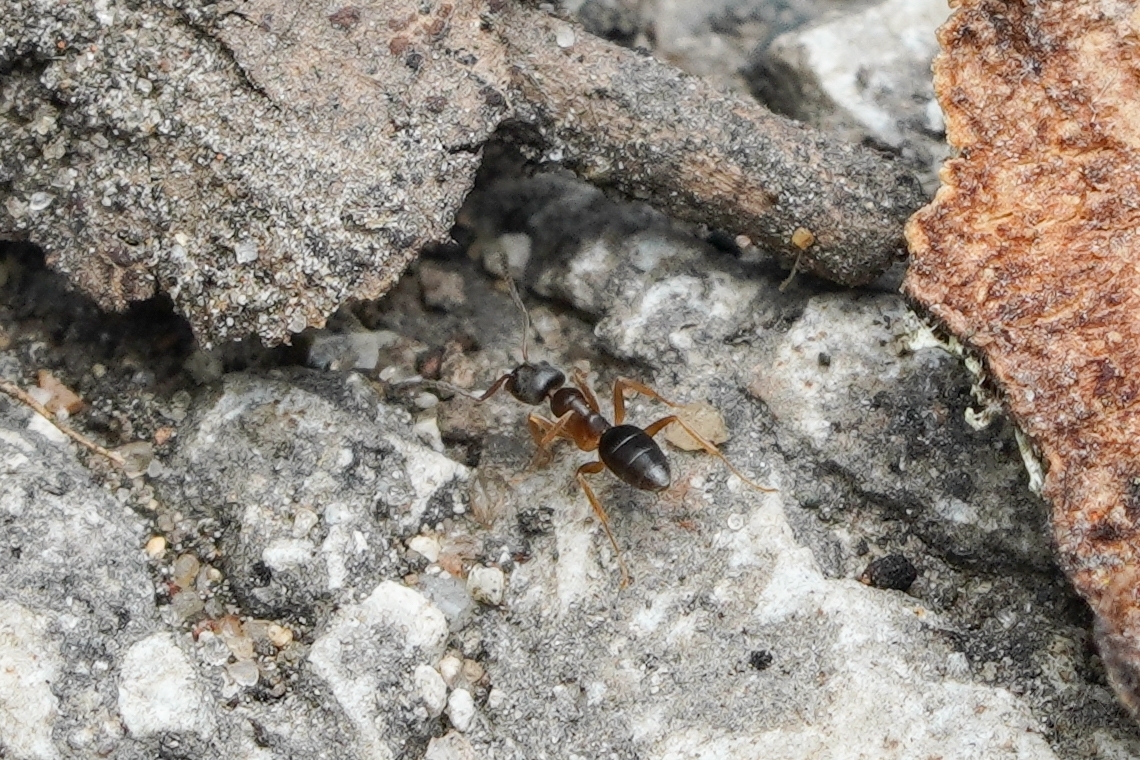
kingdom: Animalia
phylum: Arthropoda
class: Insecta
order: Hymenoptera
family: Formicidae
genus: Tapinoma
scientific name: Tapinoma sessile
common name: Odorous house ant
